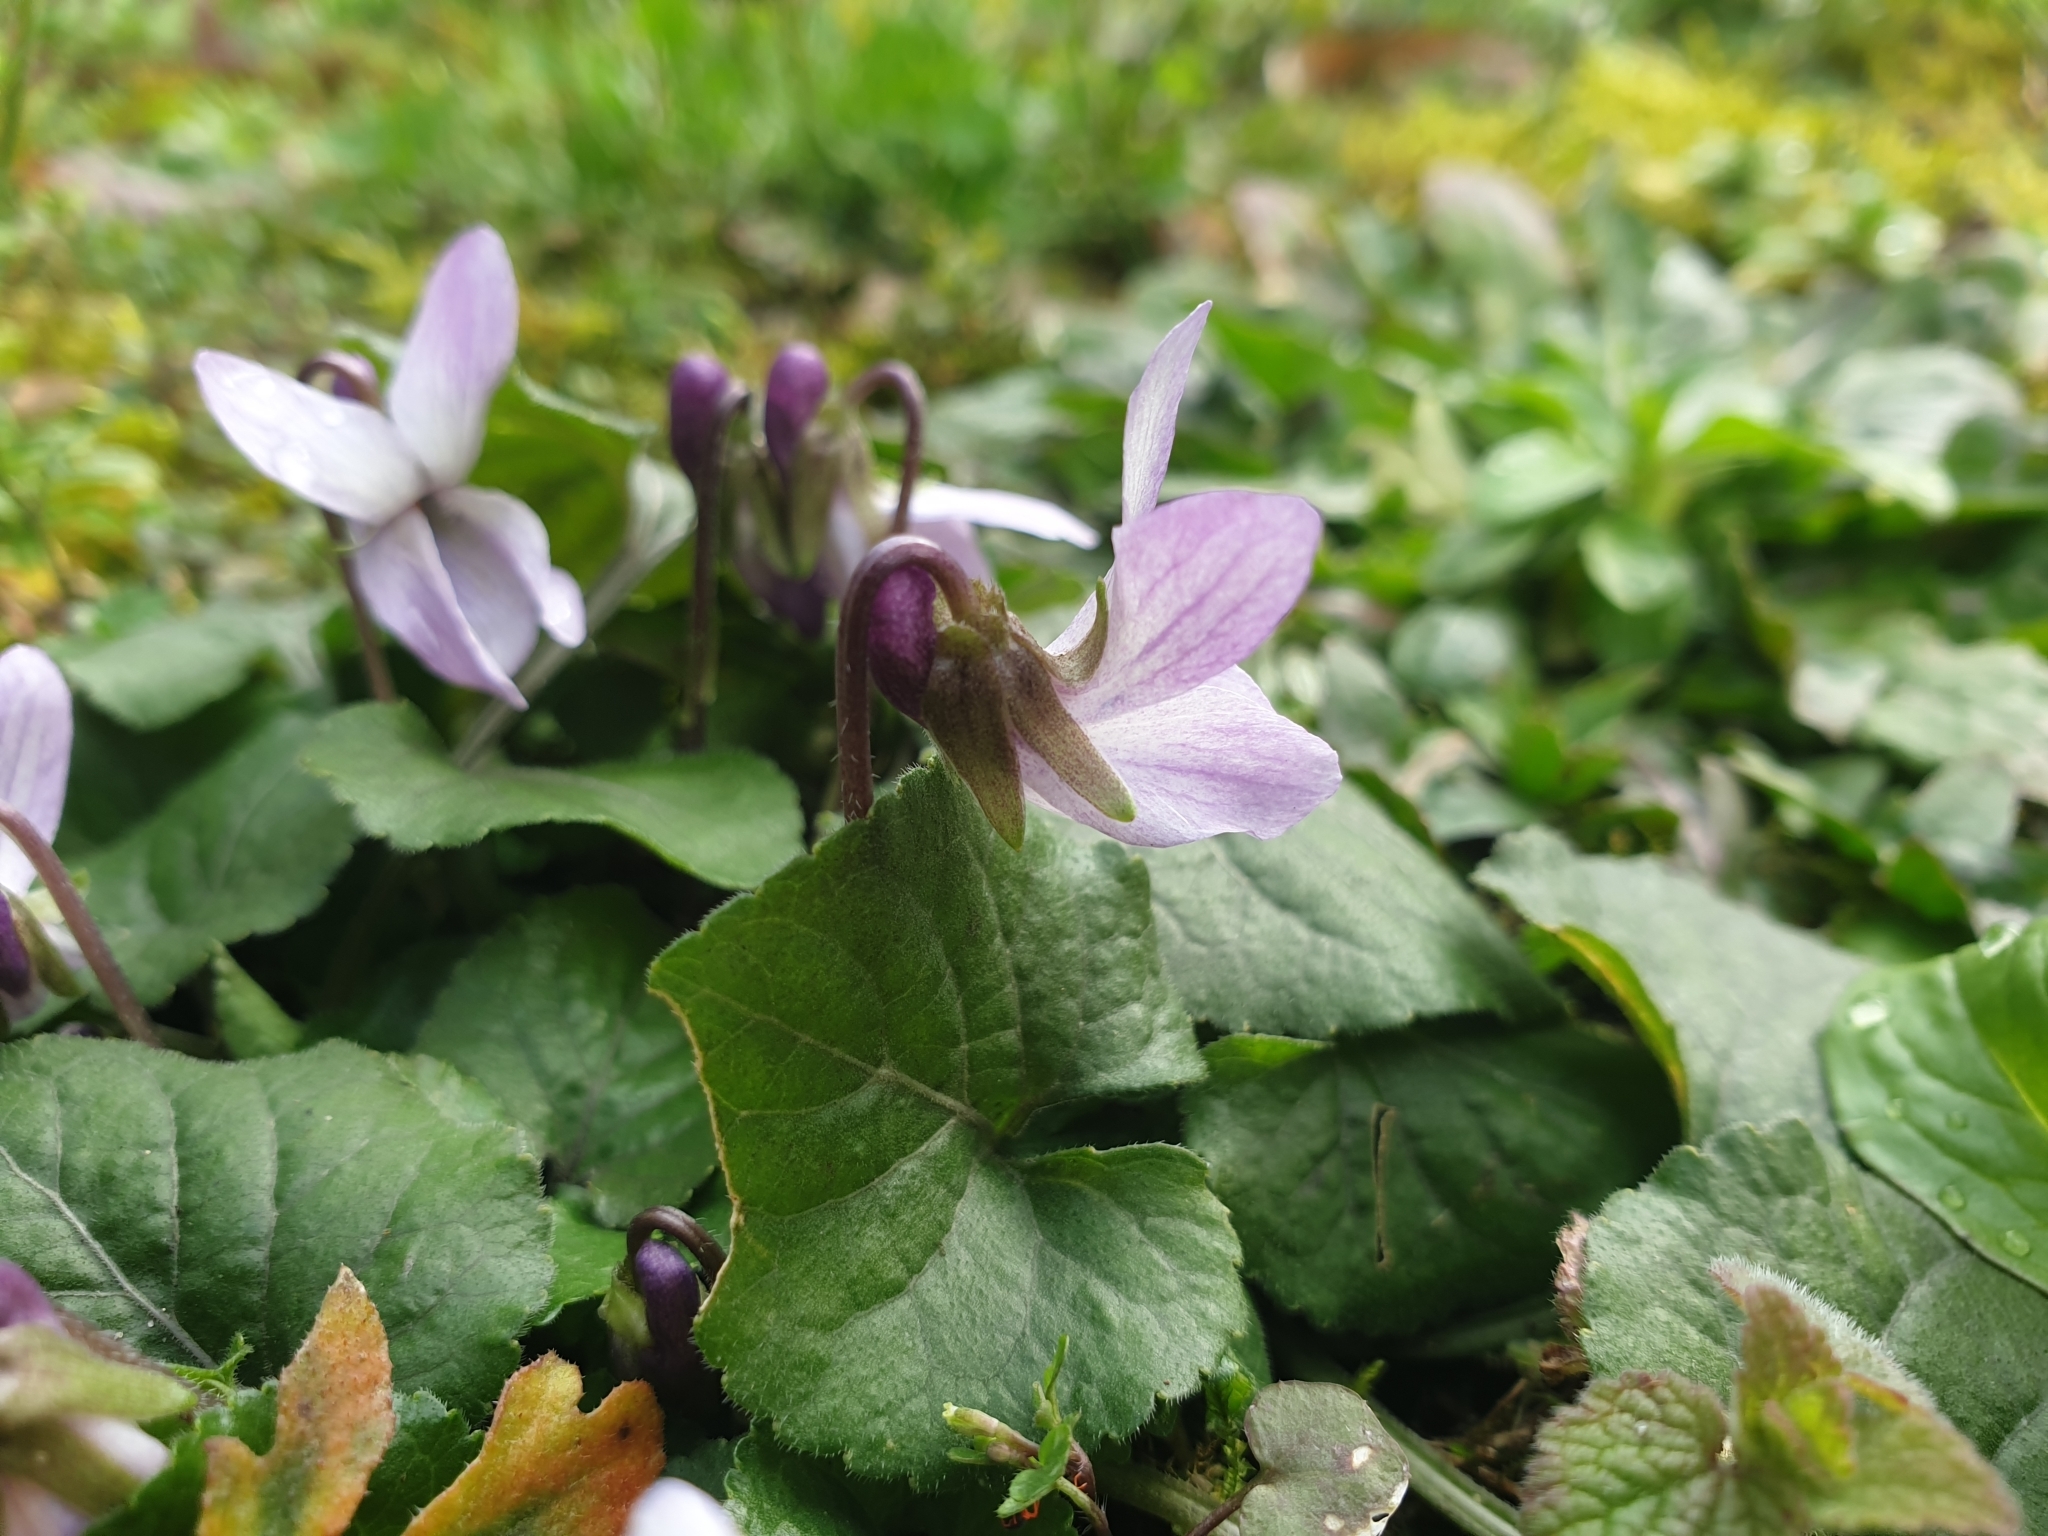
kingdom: Plantae
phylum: Tracheophyta
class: Magnoliopsida
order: Malpighiales
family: Violaceae
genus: Viola
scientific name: Viola odorata
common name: Sweet violet
